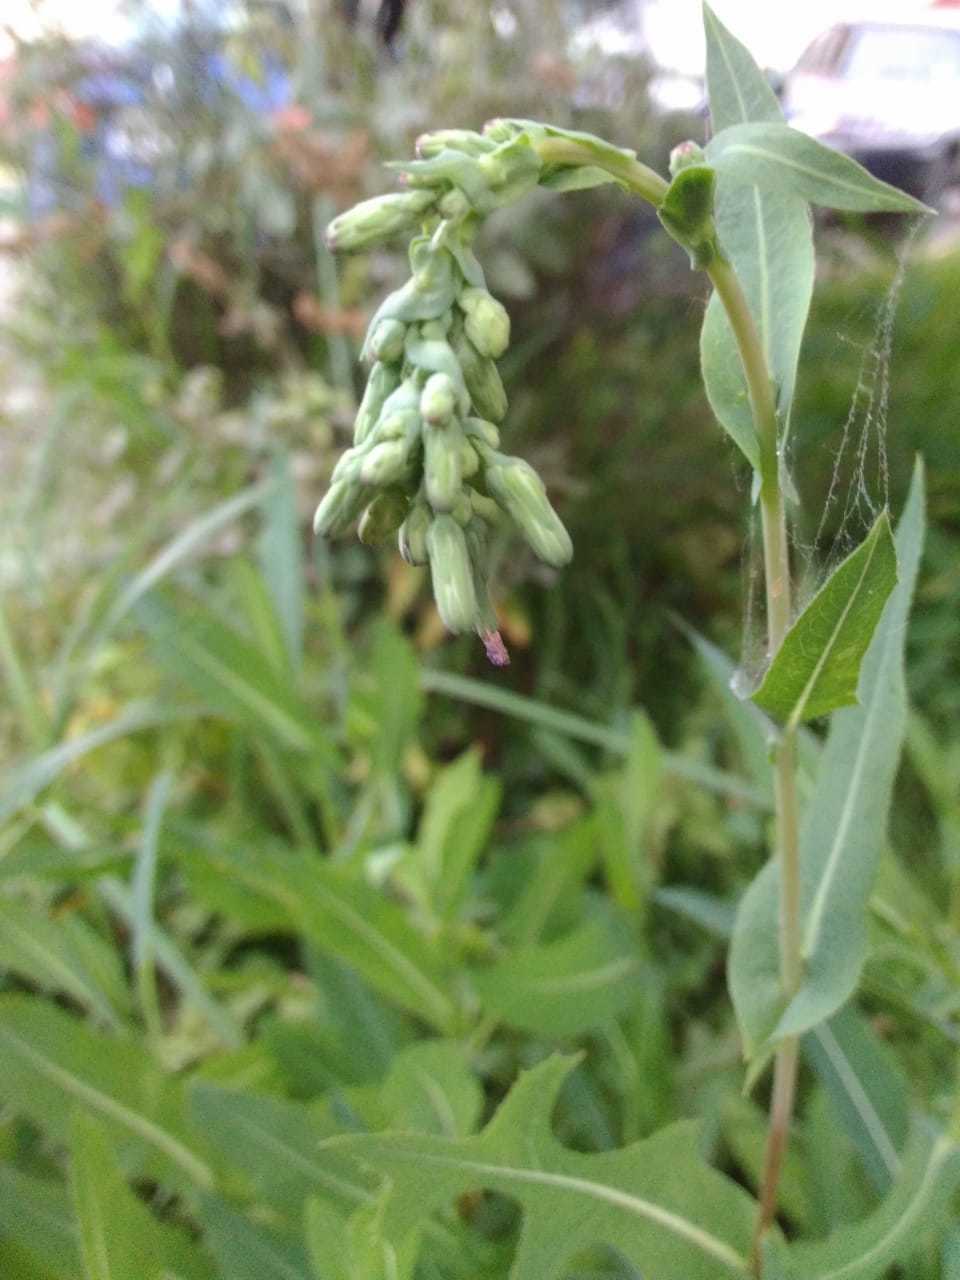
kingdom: Plantae
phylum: Tracheophyta
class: Magnoliopsida
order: Asterales
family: Asteraceae
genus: Lactuca
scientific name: Lactuca serriola
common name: Prickly lettuce
